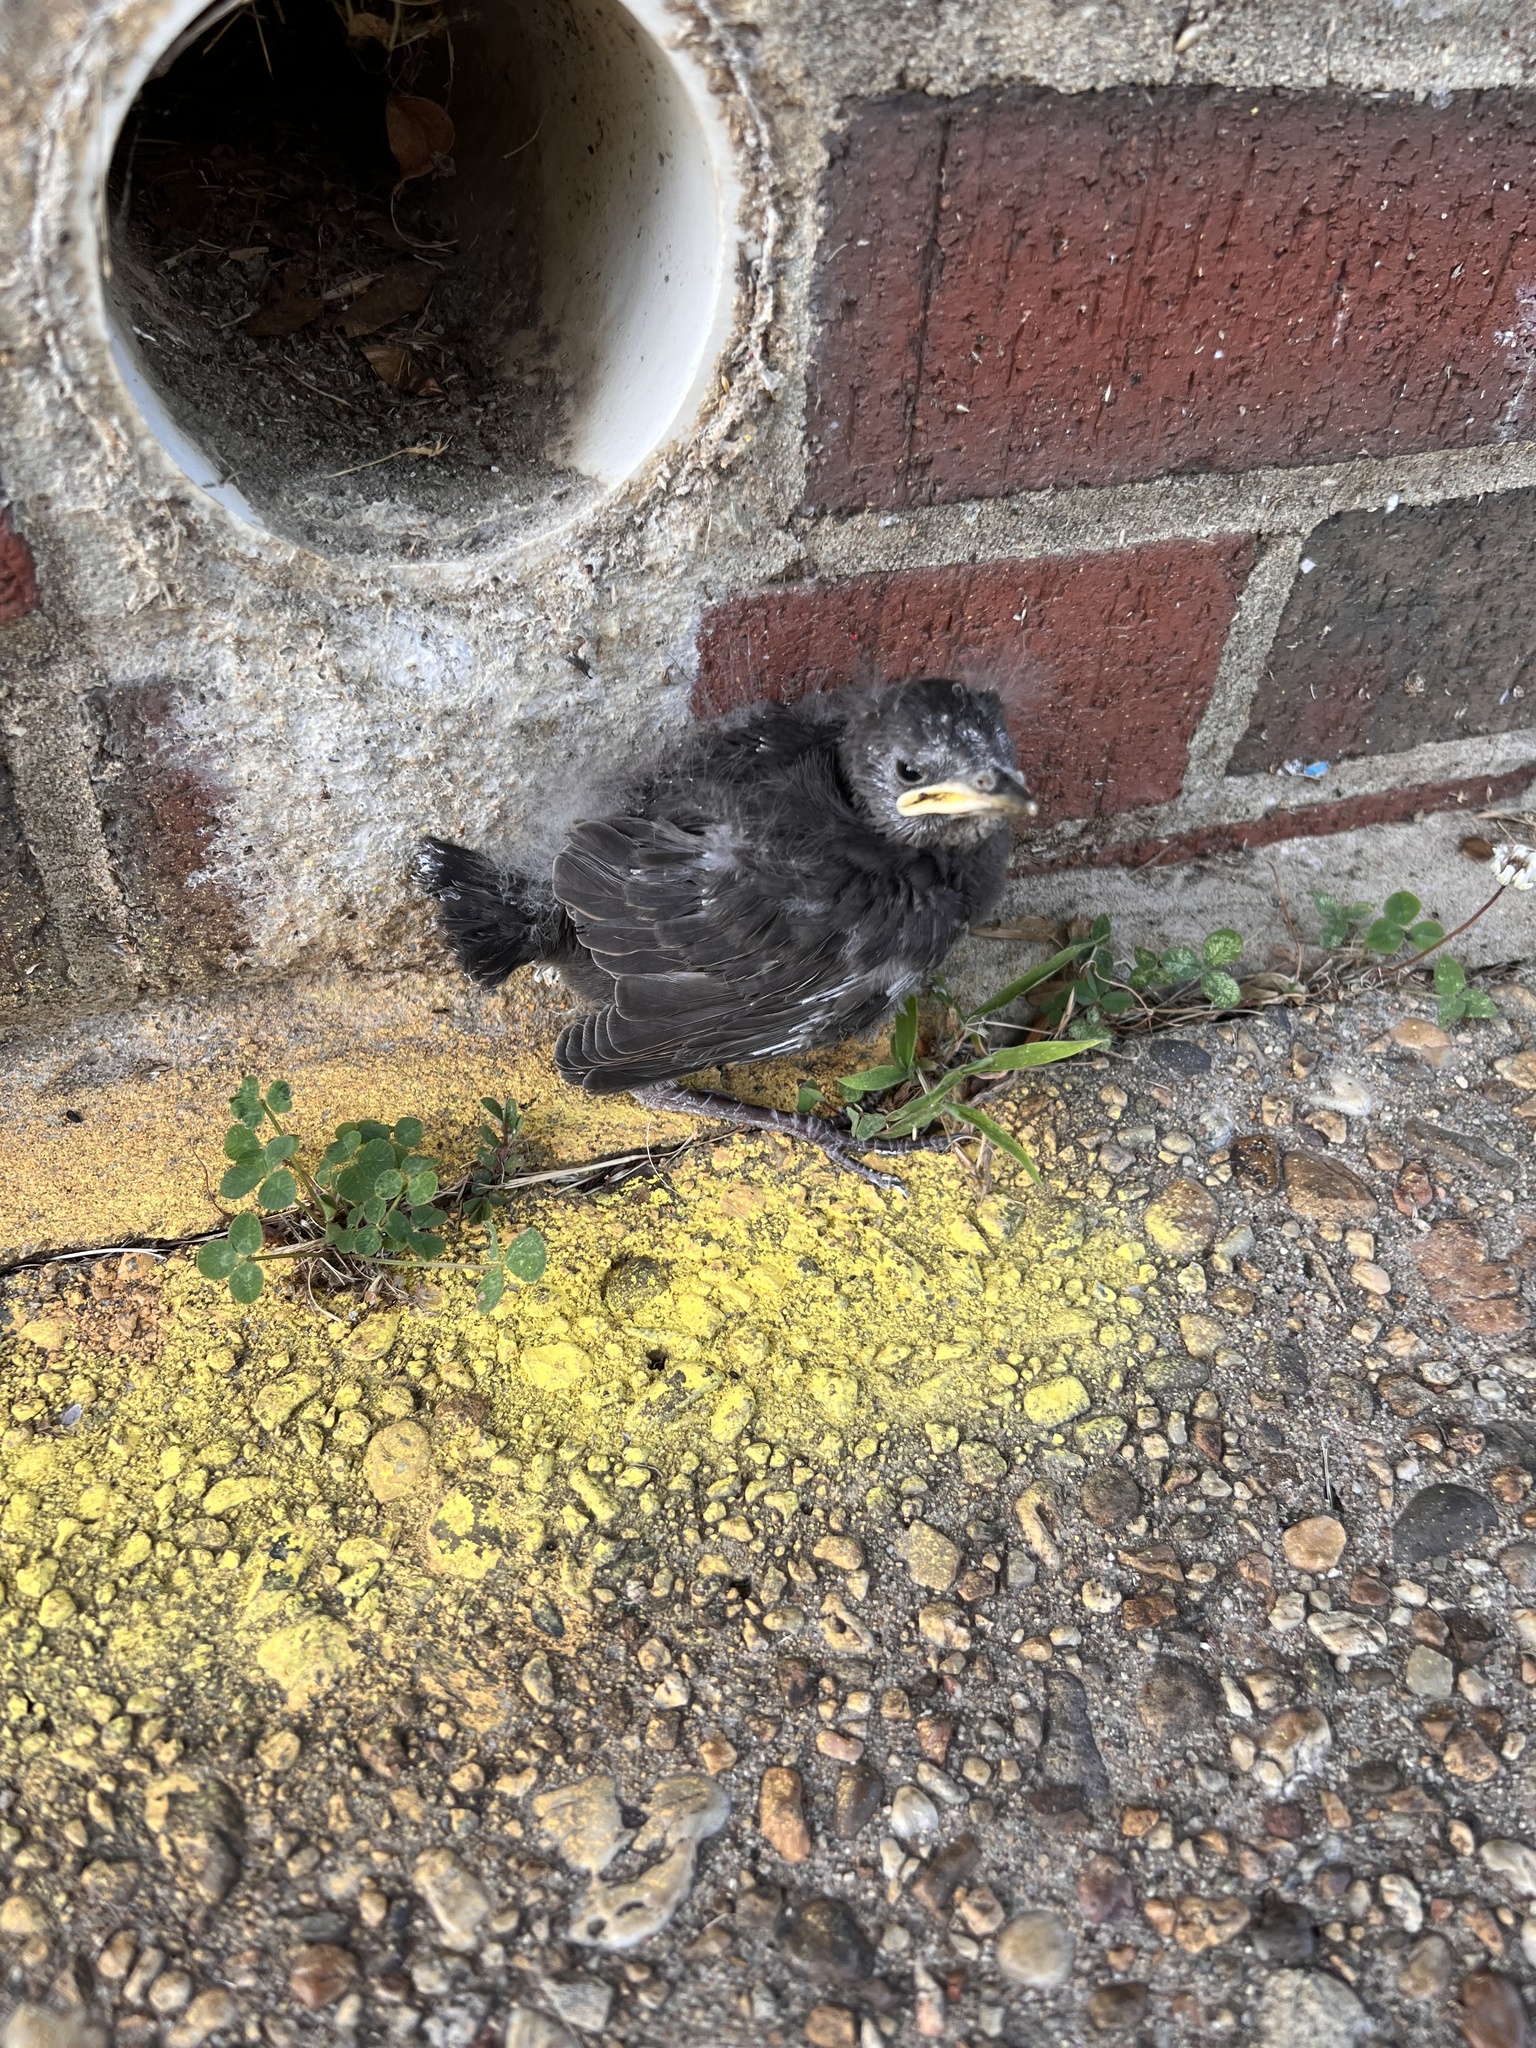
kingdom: Animalia
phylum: Chordata
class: Aves
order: Passeriformes
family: Sturnidae
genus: Sturnus
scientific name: Sturnus vulgaris
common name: Common starling
